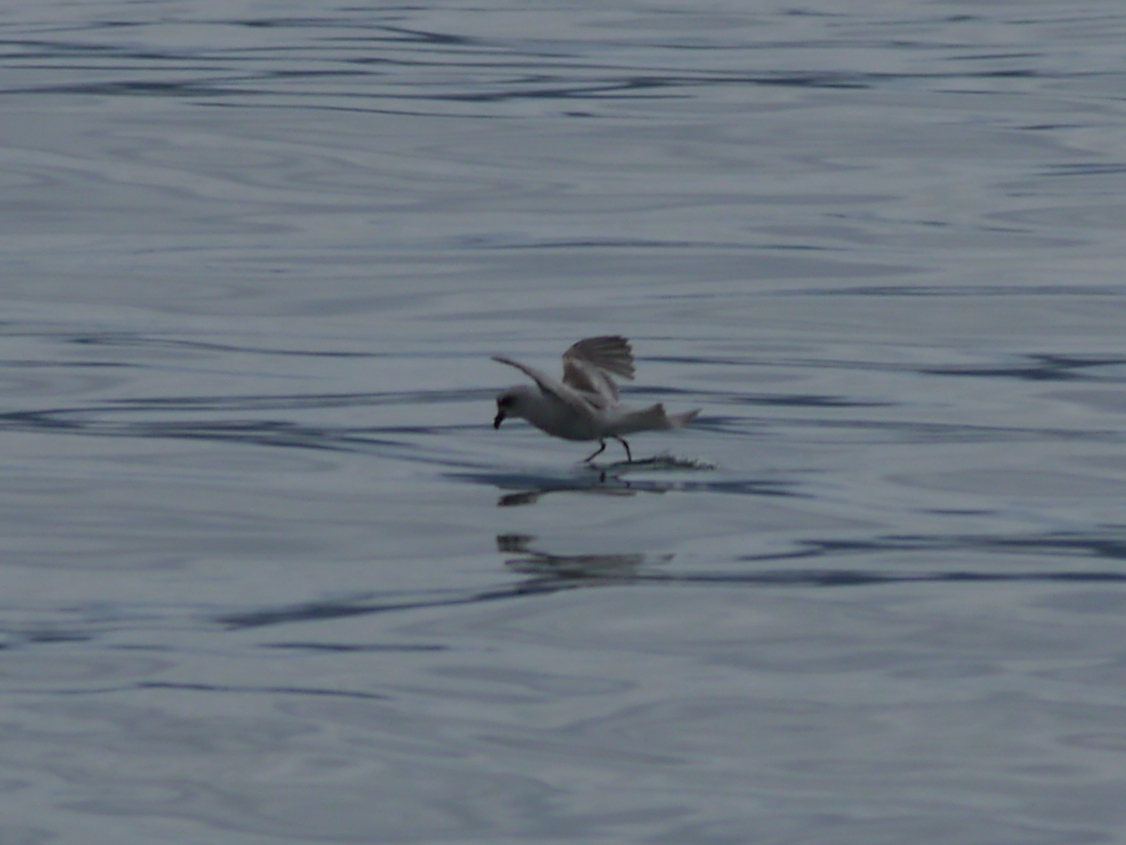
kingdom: Animalia
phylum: Chordata
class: Aves
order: Procellariiformes
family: Hydrobatidae
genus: Oceanodroma
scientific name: Oceanodroma furcata
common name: Fork-tailed storm-petrel
